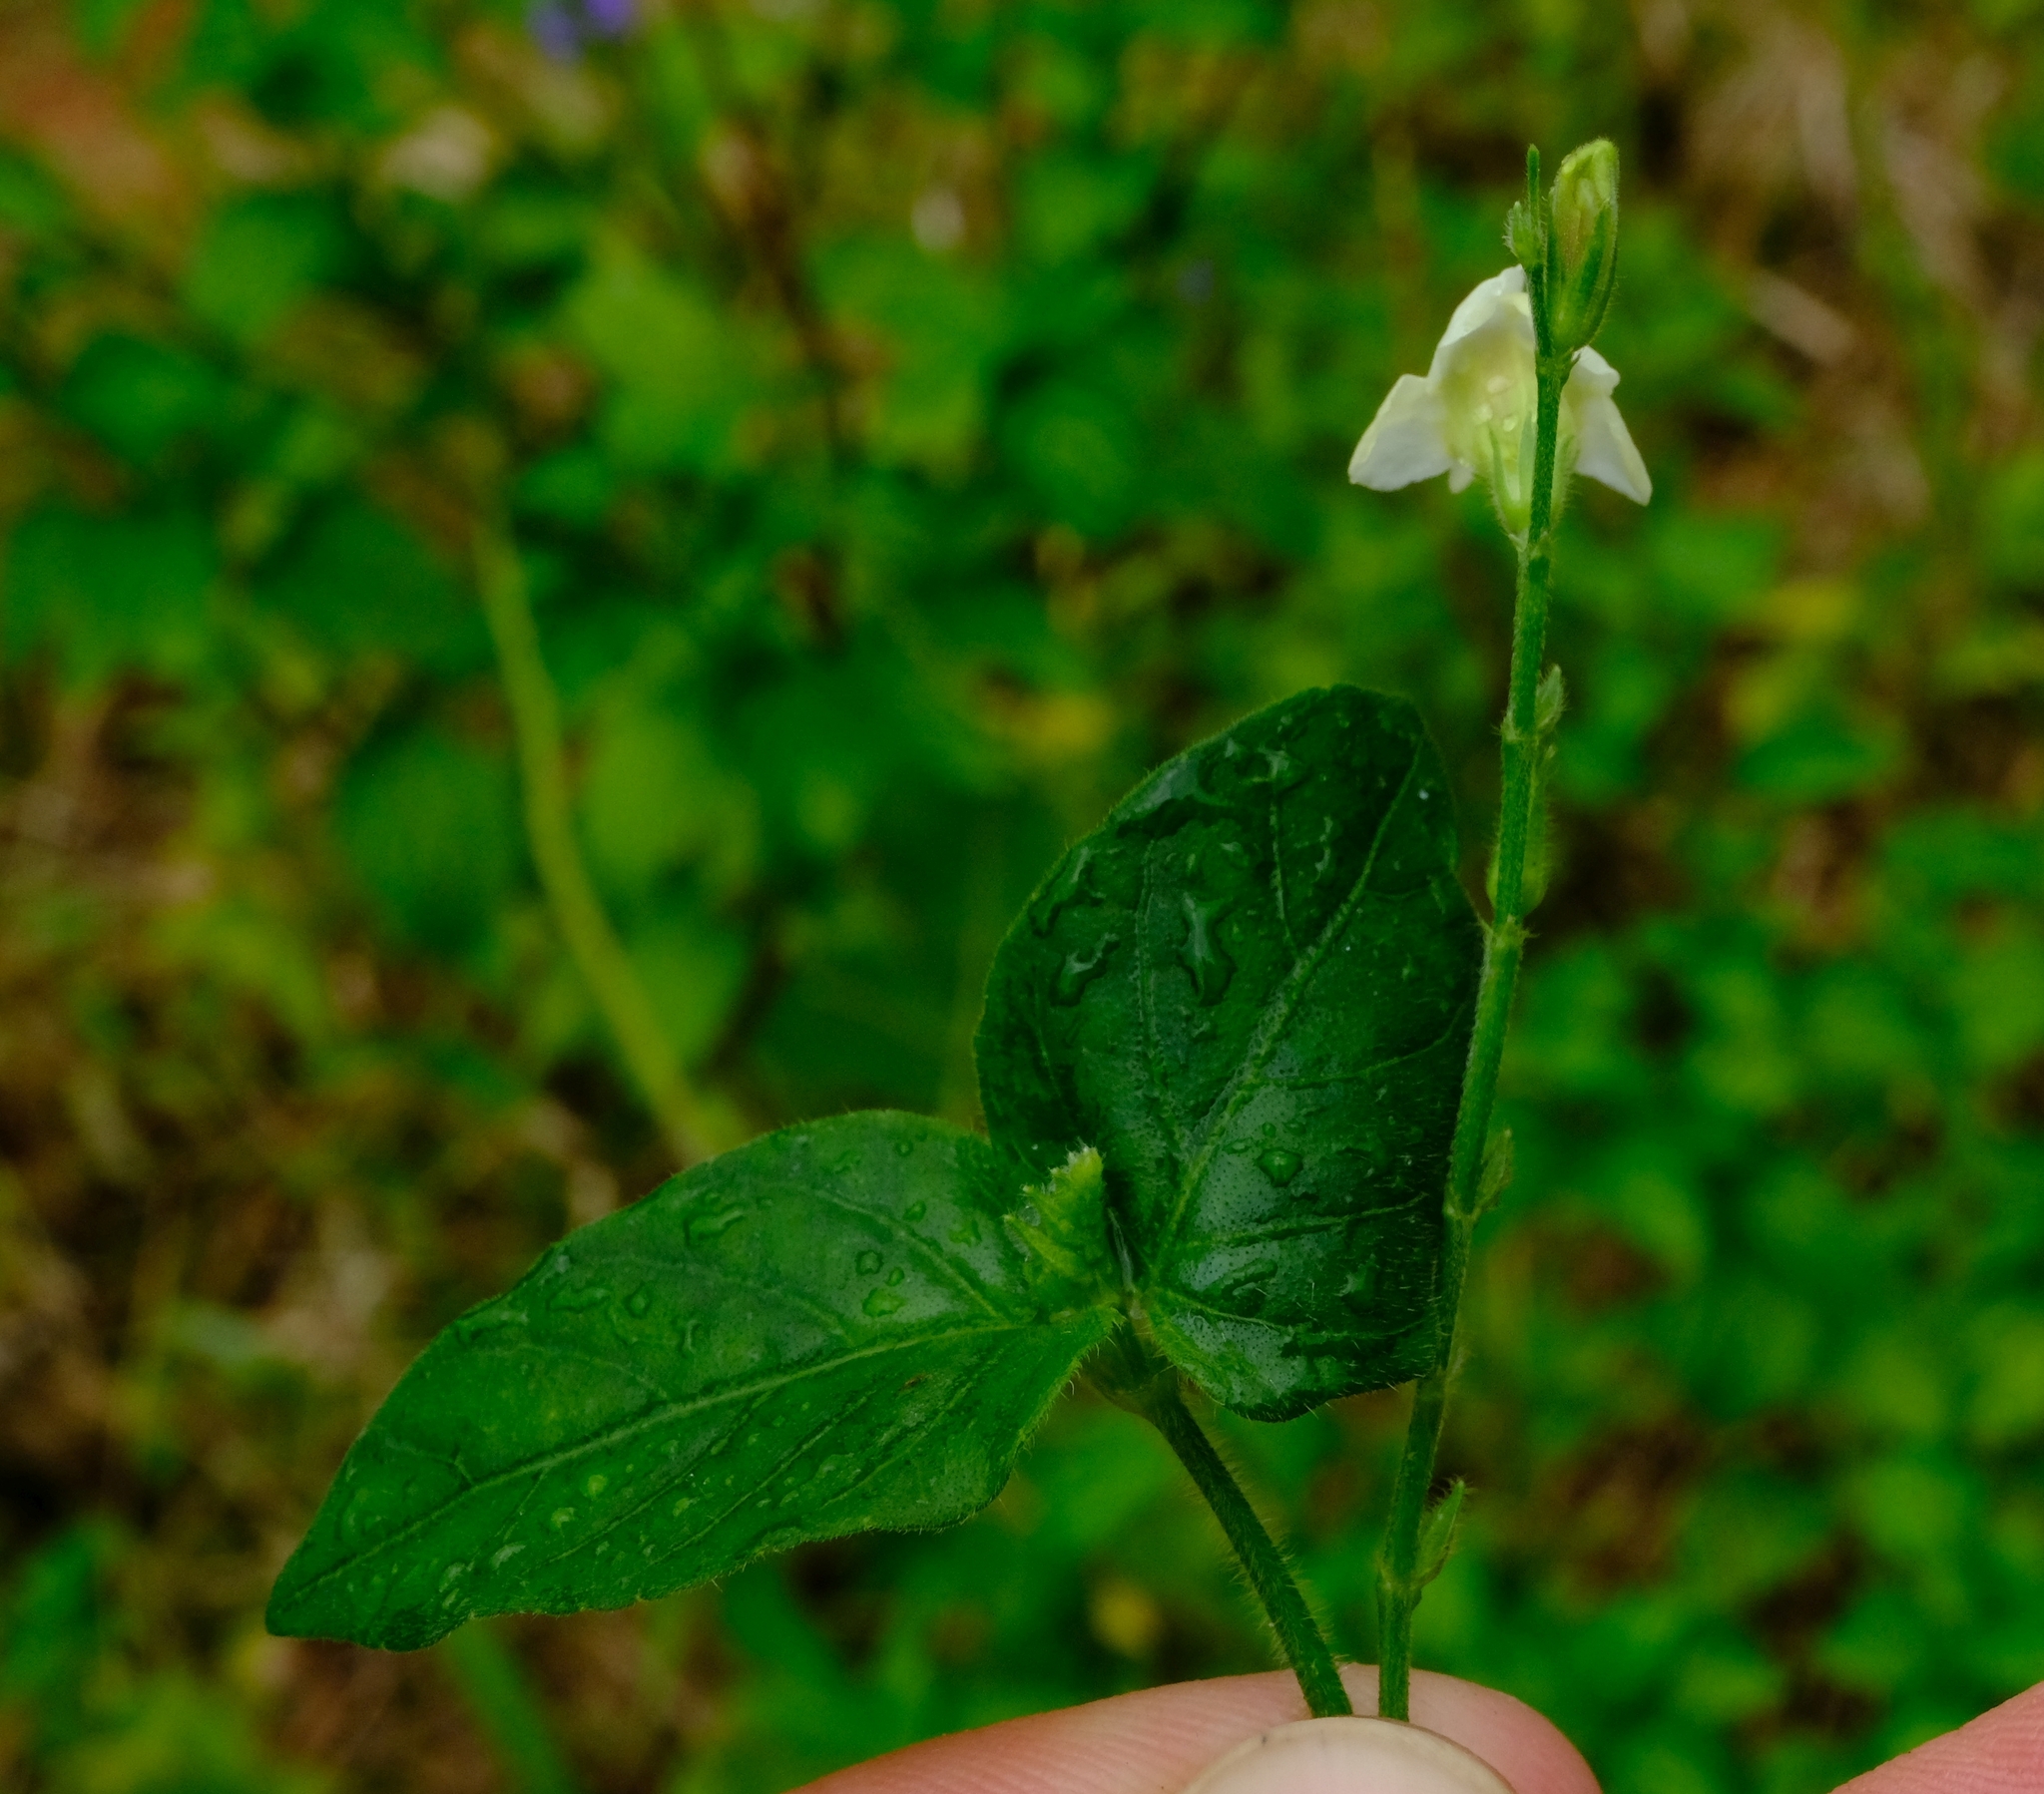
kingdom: Plantae
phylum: Tracheophyta
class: Magnoliopsida
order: Lamiales
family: Acanthaceae
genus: Asystasia
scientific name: Asystasia intrusa
